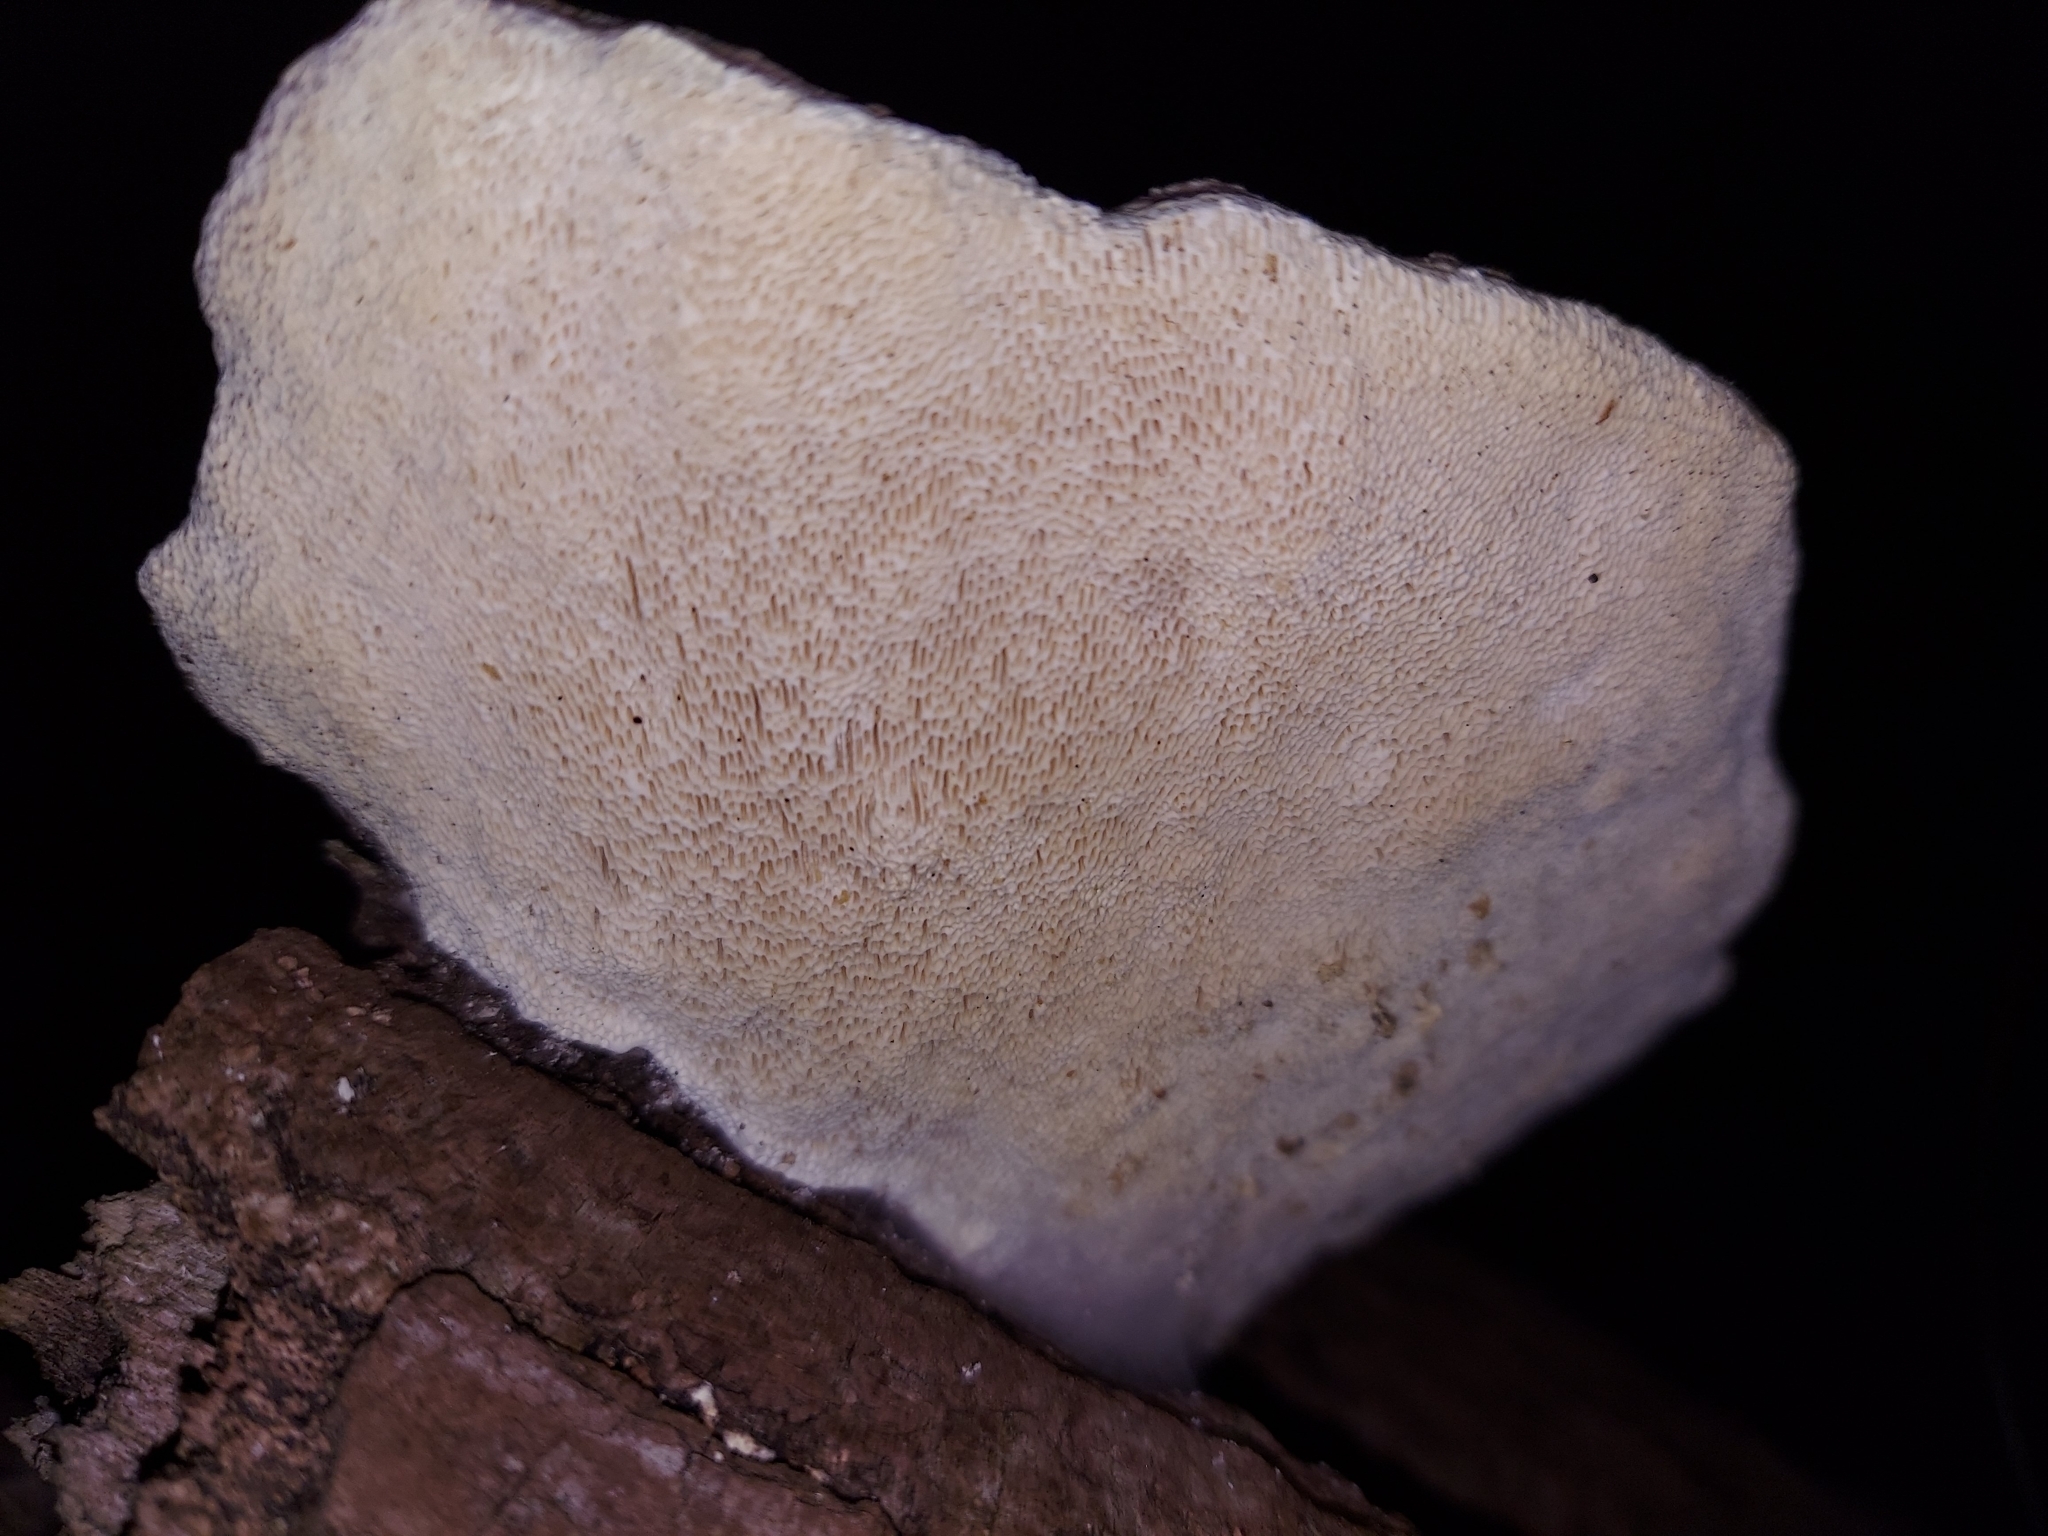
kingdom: Fungi
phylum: Basidiomycota
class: Agaricomycetes
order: Polyporales
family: Polyporaceae
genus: Trametes
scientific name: Trametes gibbosa
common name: Lumpy bracket
